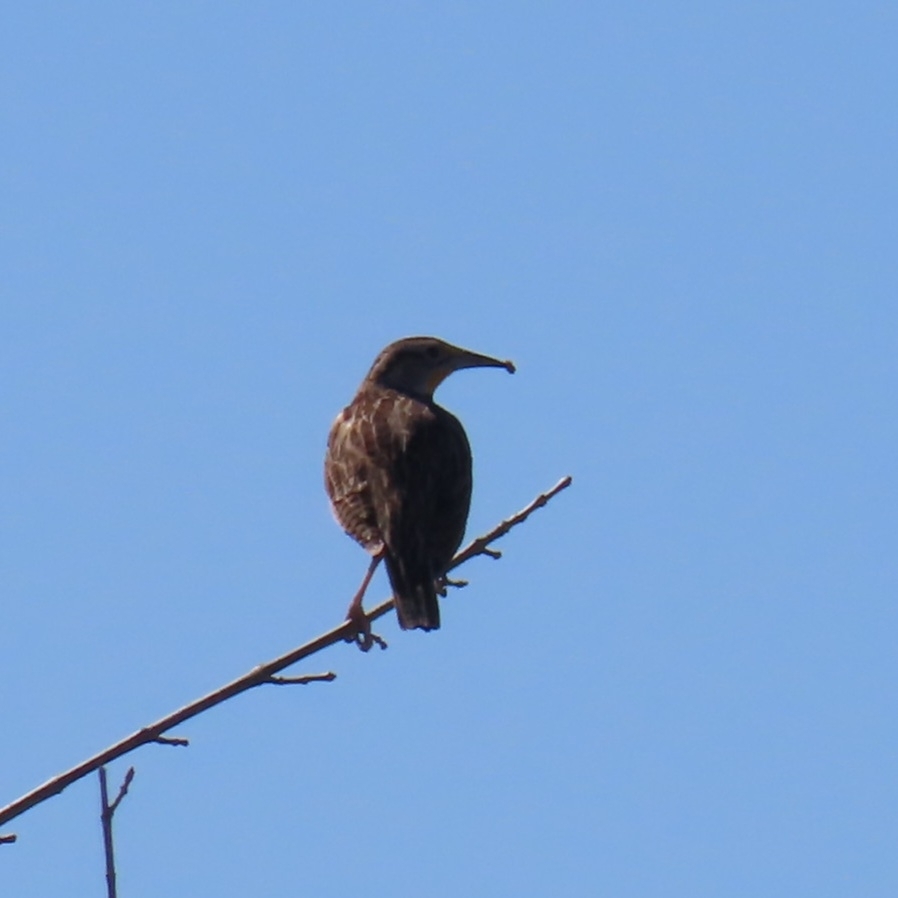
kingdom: Animalia
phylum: Chordata
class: Aves
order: Passeriformes
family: Icteridae
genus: Sturnella
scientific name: Sturnella neglecta
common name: Western meadowlark
